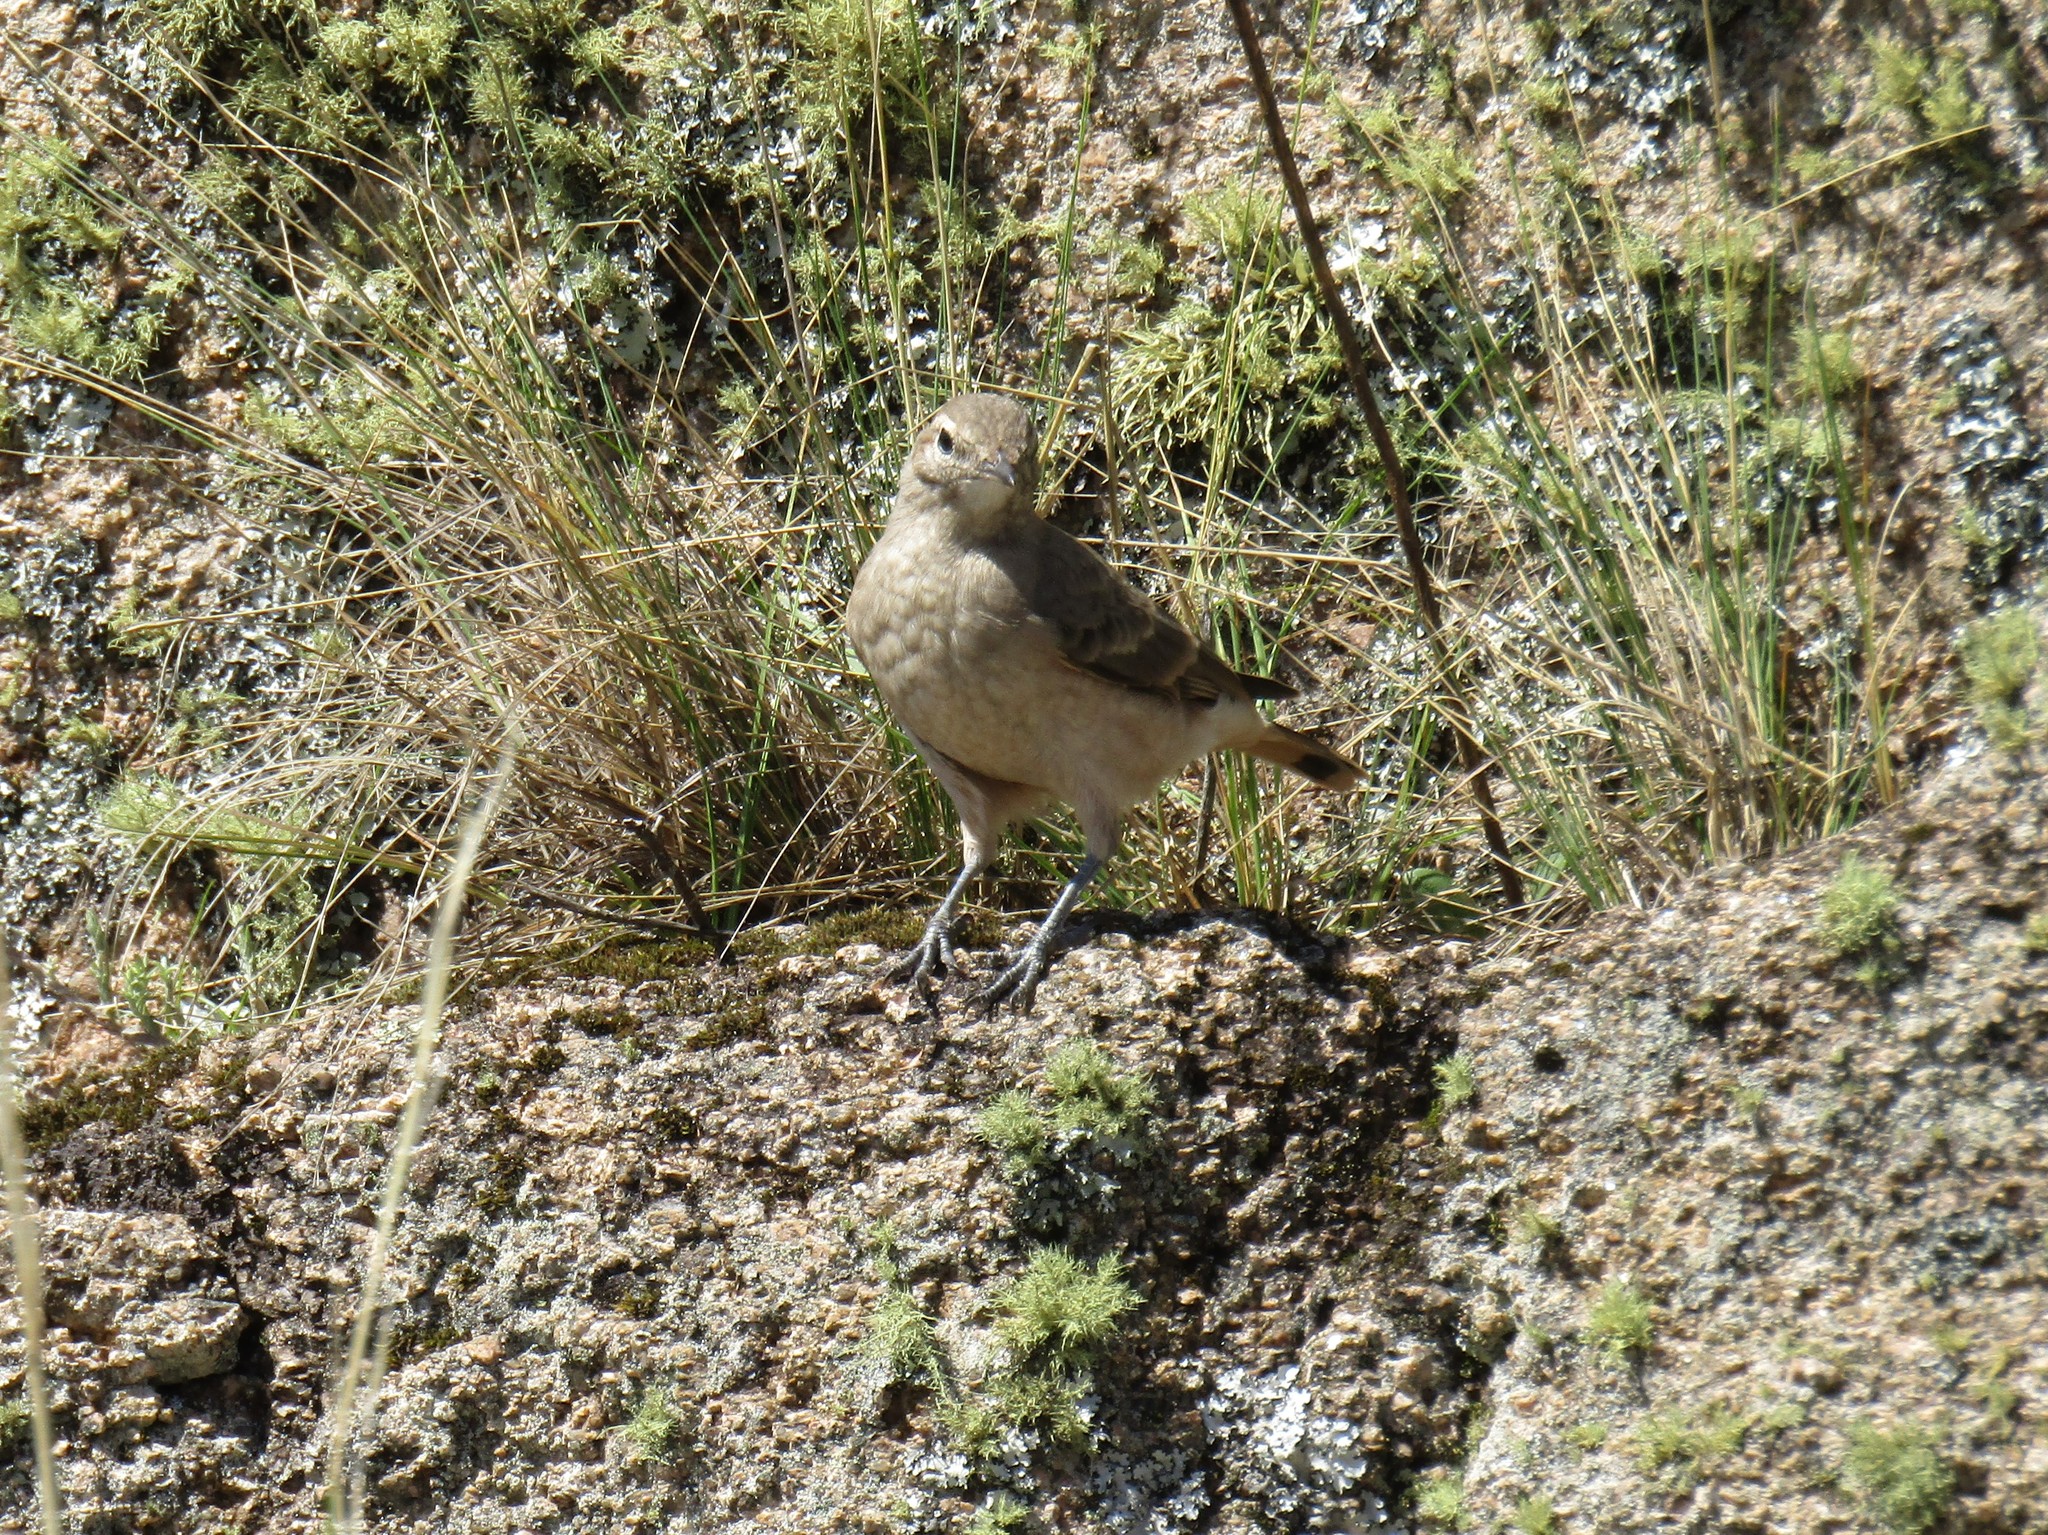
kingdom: Animalia
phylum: Chordata
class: Aves
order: Passeriformes
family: Furnariidae
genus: Geositta
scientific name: Geositta rufipennis
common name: Rufous-banded miner
